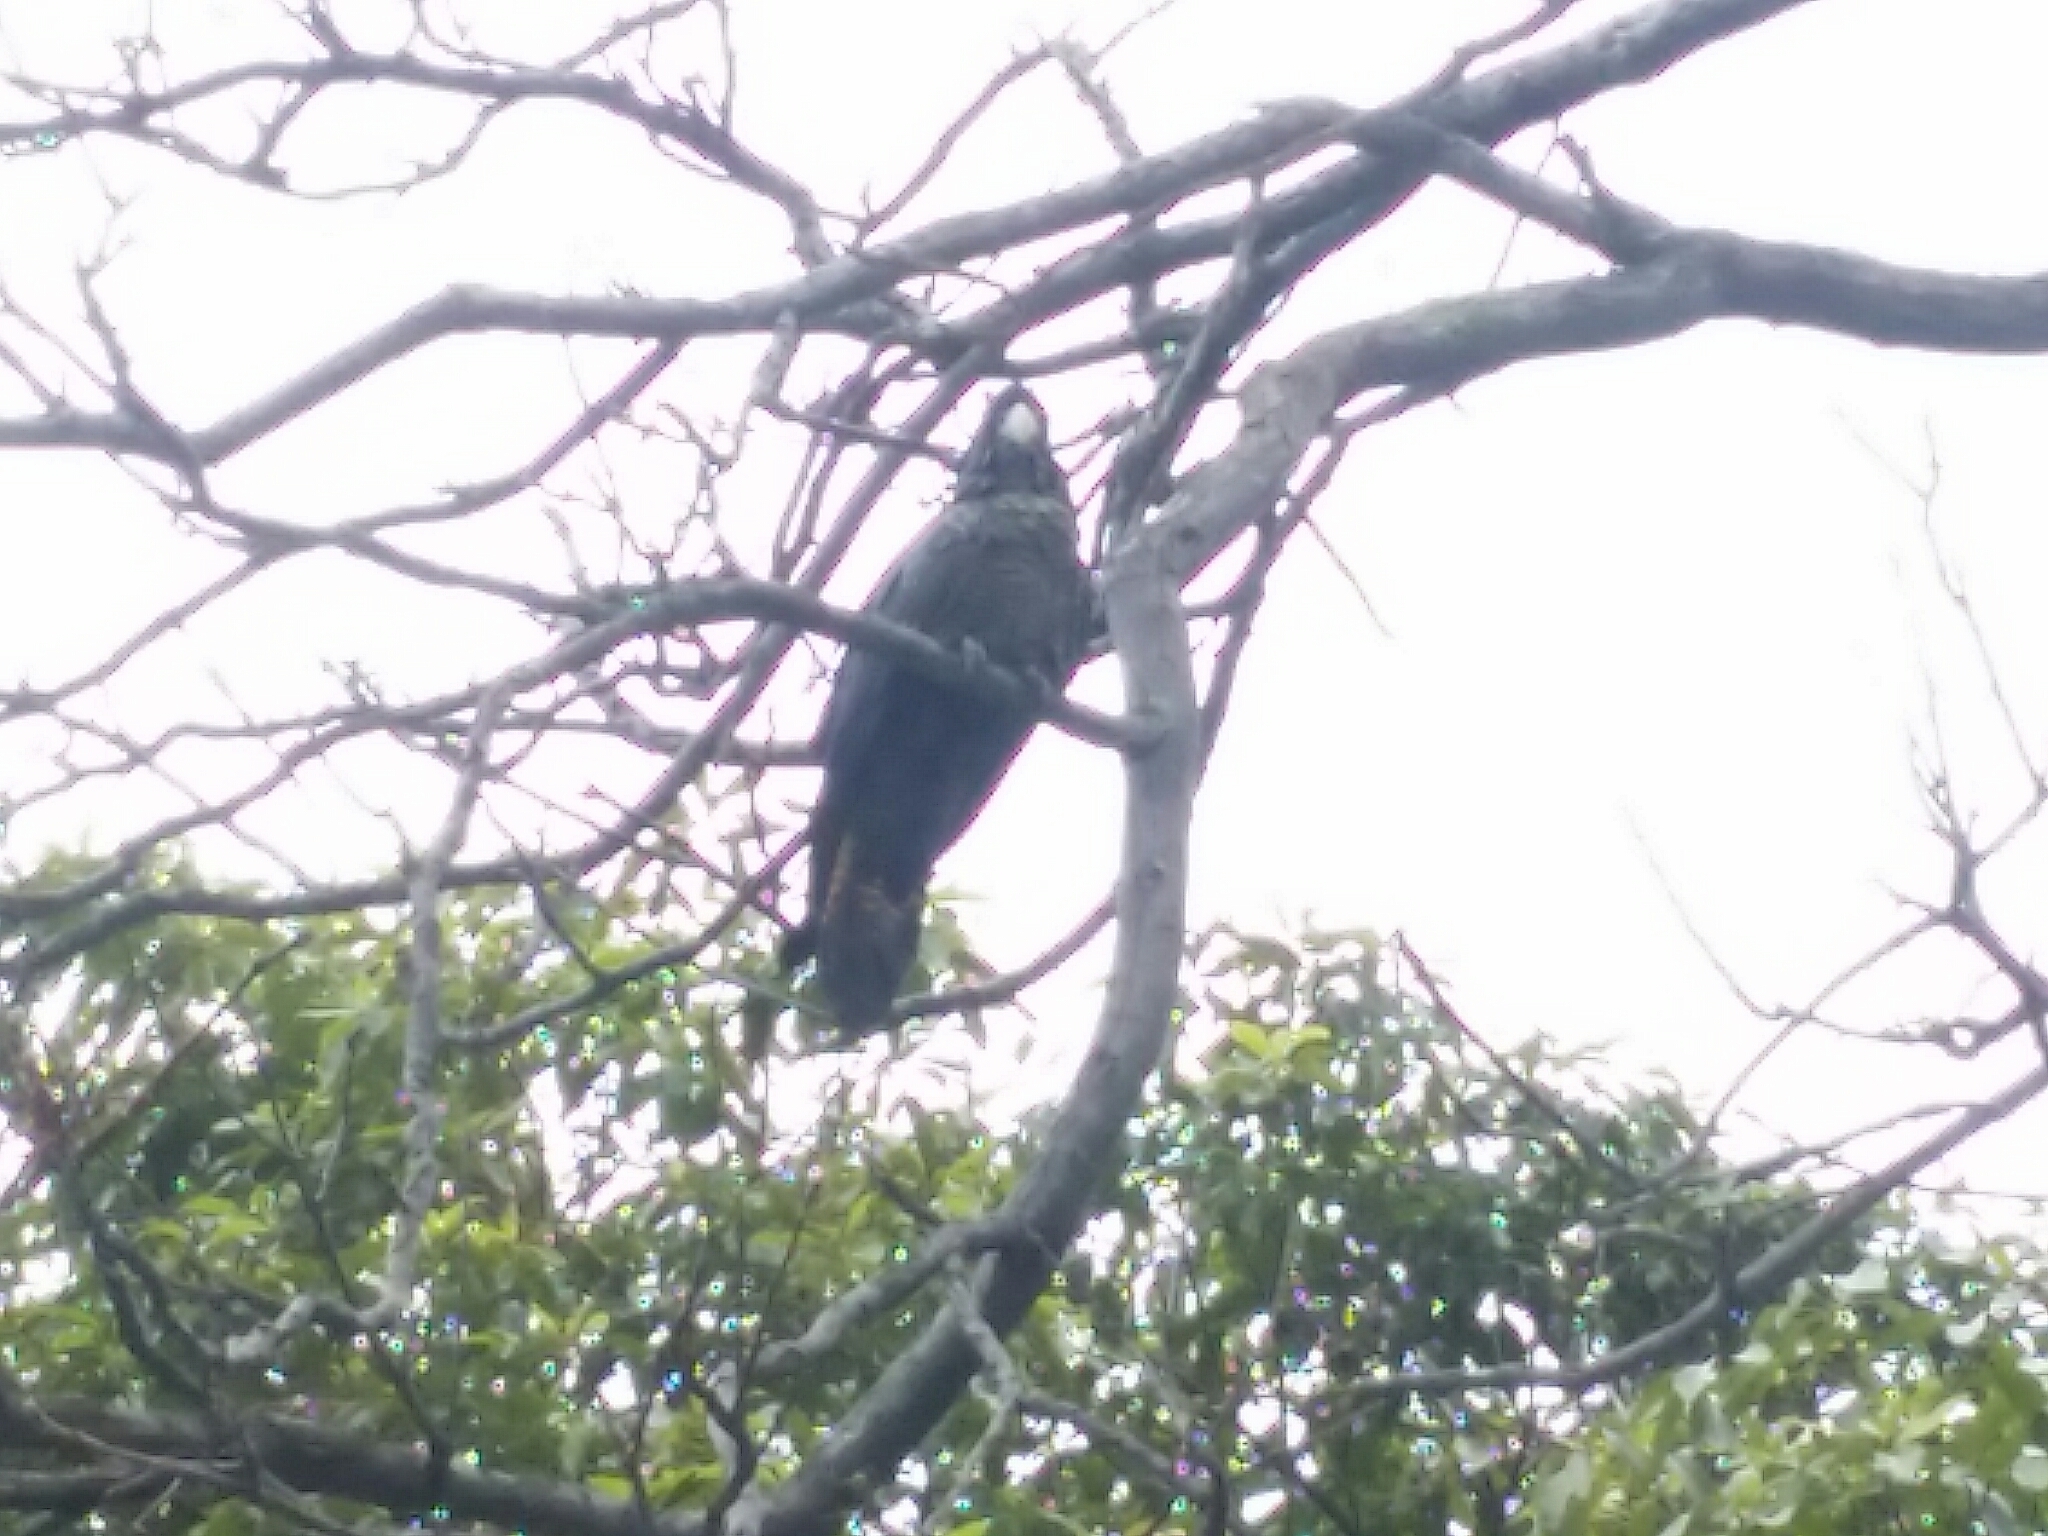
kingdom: Animalia
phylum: Chordata
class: Aves
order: Psittaciformes
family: Psittacidae
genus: Calyptorhynchus
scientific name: Calyptorhynchus banksii
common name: Red-tailed black cockatoo
